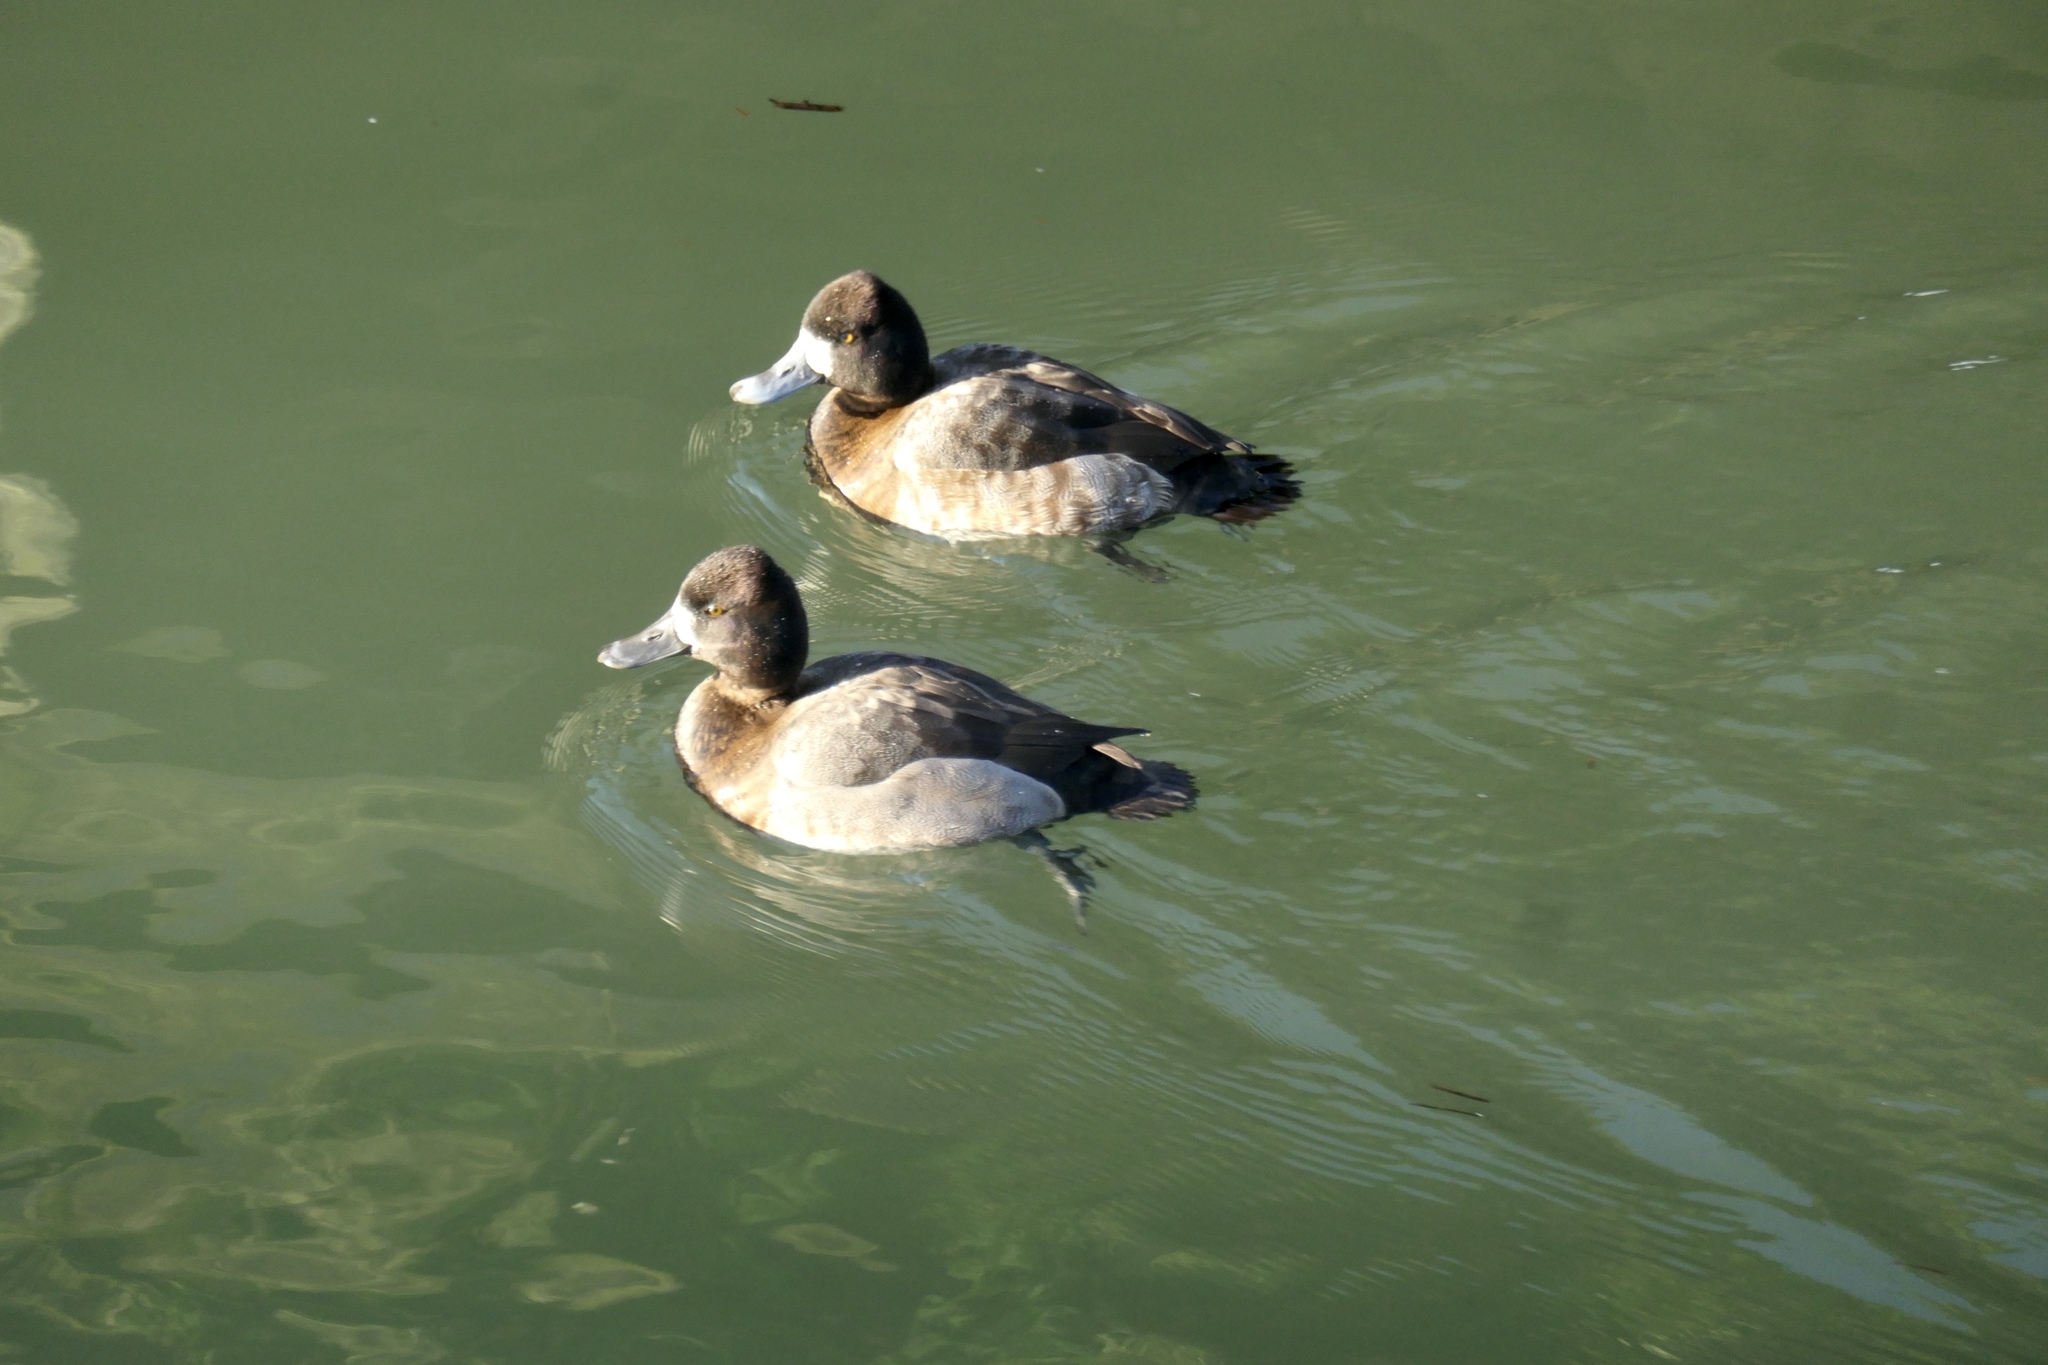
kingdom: Animalia
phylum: Chordata
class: Aves
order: Anseriformes
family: Anatidae
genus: Aythya
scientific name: Aythya affinis
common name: Lesser scaup
